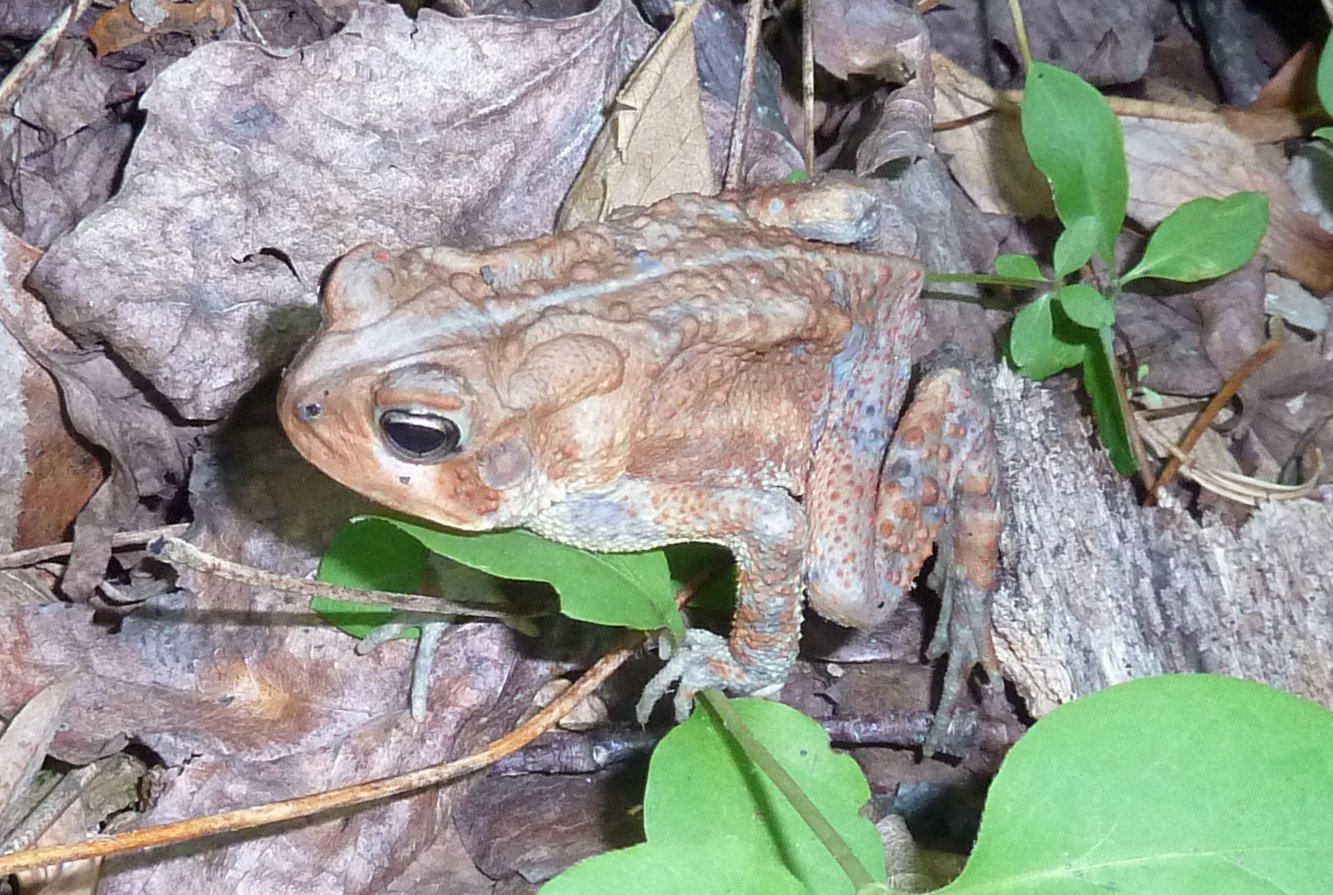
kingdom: Animalia
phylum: Chordata
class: Amphibia
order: Anura
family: Bufonidae
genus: Anaxyrus
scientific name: Anaxyrus americanus
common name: American toad
